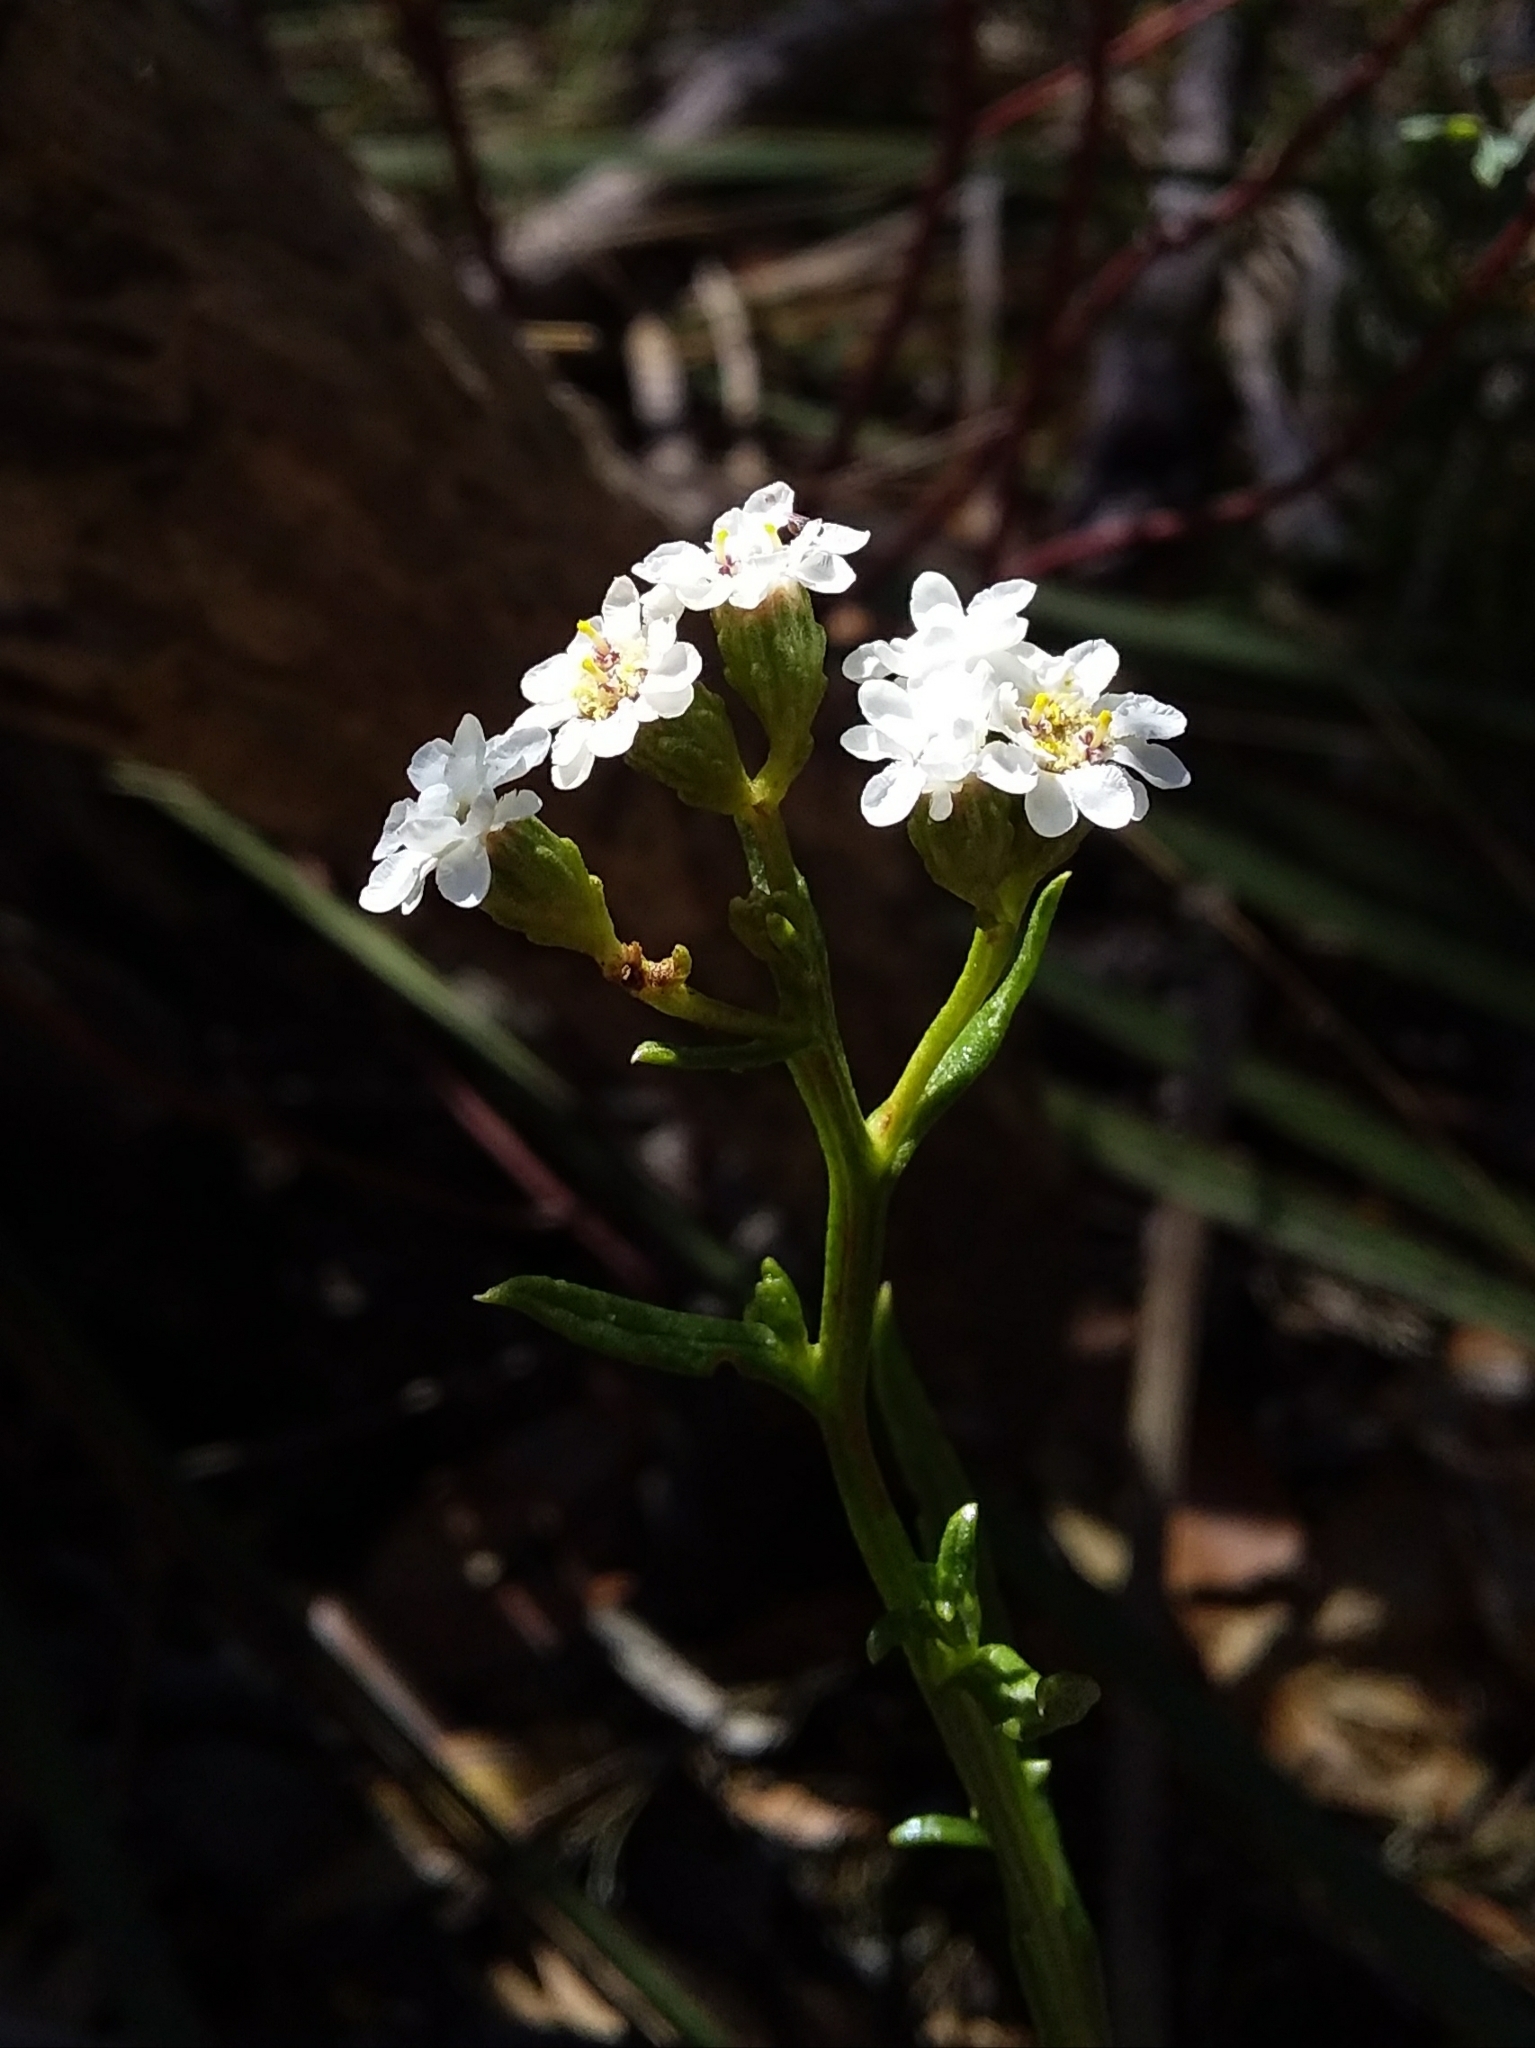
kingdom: Plantae
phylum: Tracheophyta
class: Magnoliopsida
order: Asterales
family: Asteraceae
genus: Ixodia
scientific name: Ixodia achillaeoides
